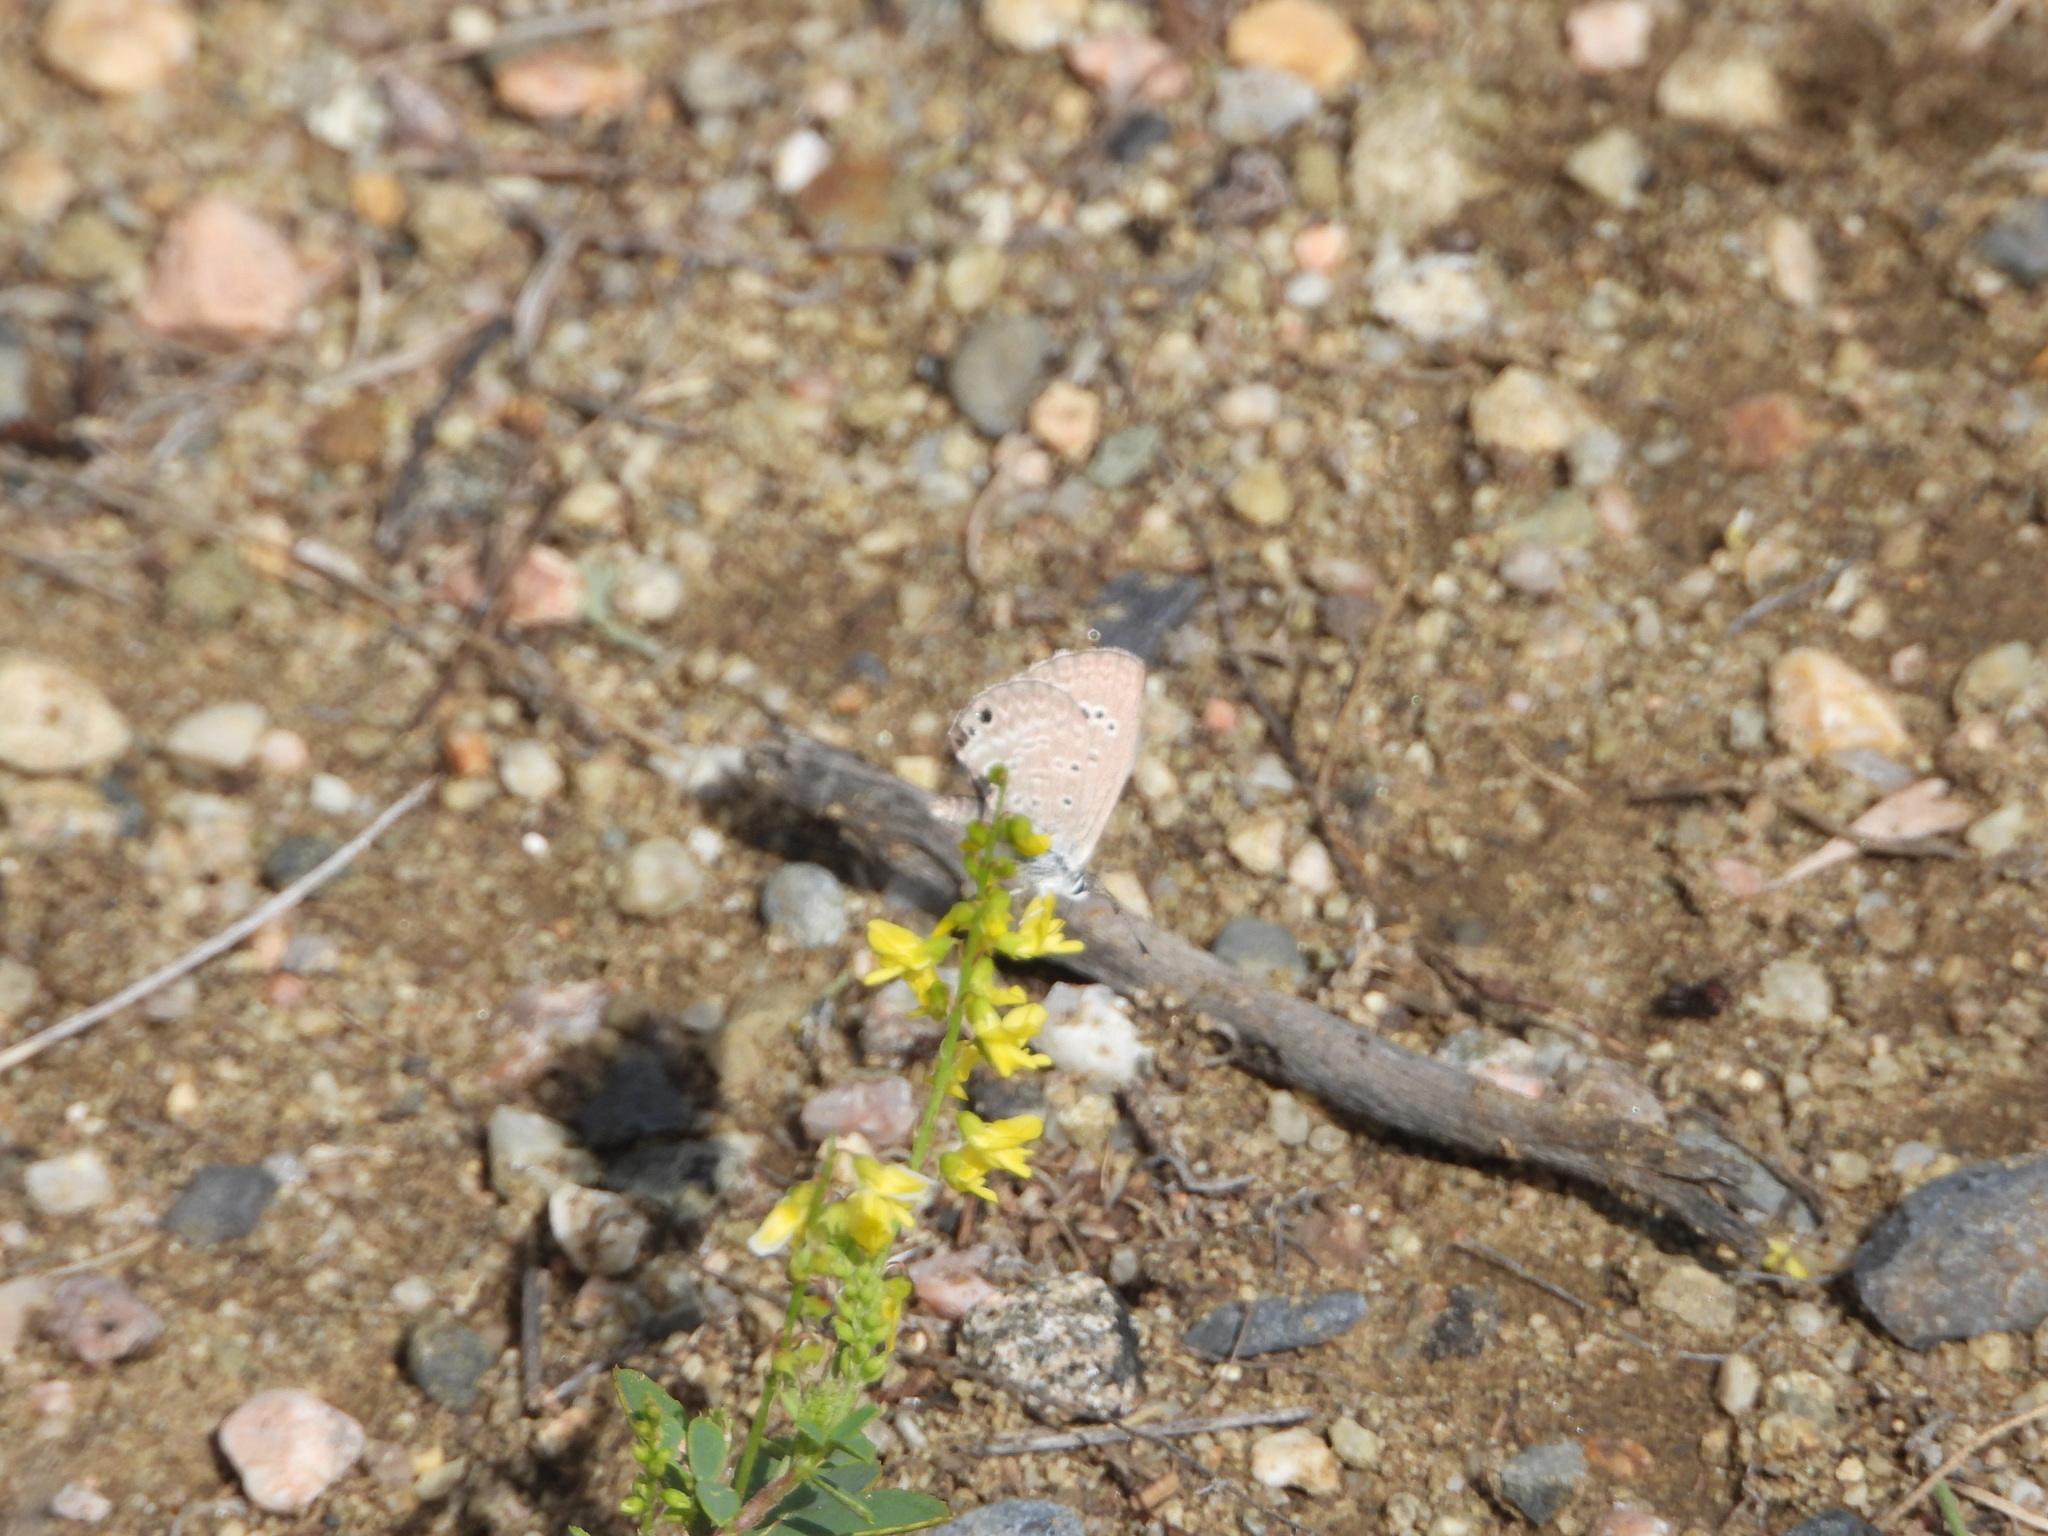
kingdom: Animalia
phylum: Arthropoda
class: Insecta
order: Lepidoptera
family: Lycaenidae
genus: Echinargus
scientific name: Echinargus isola
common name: Reakirt's blue
